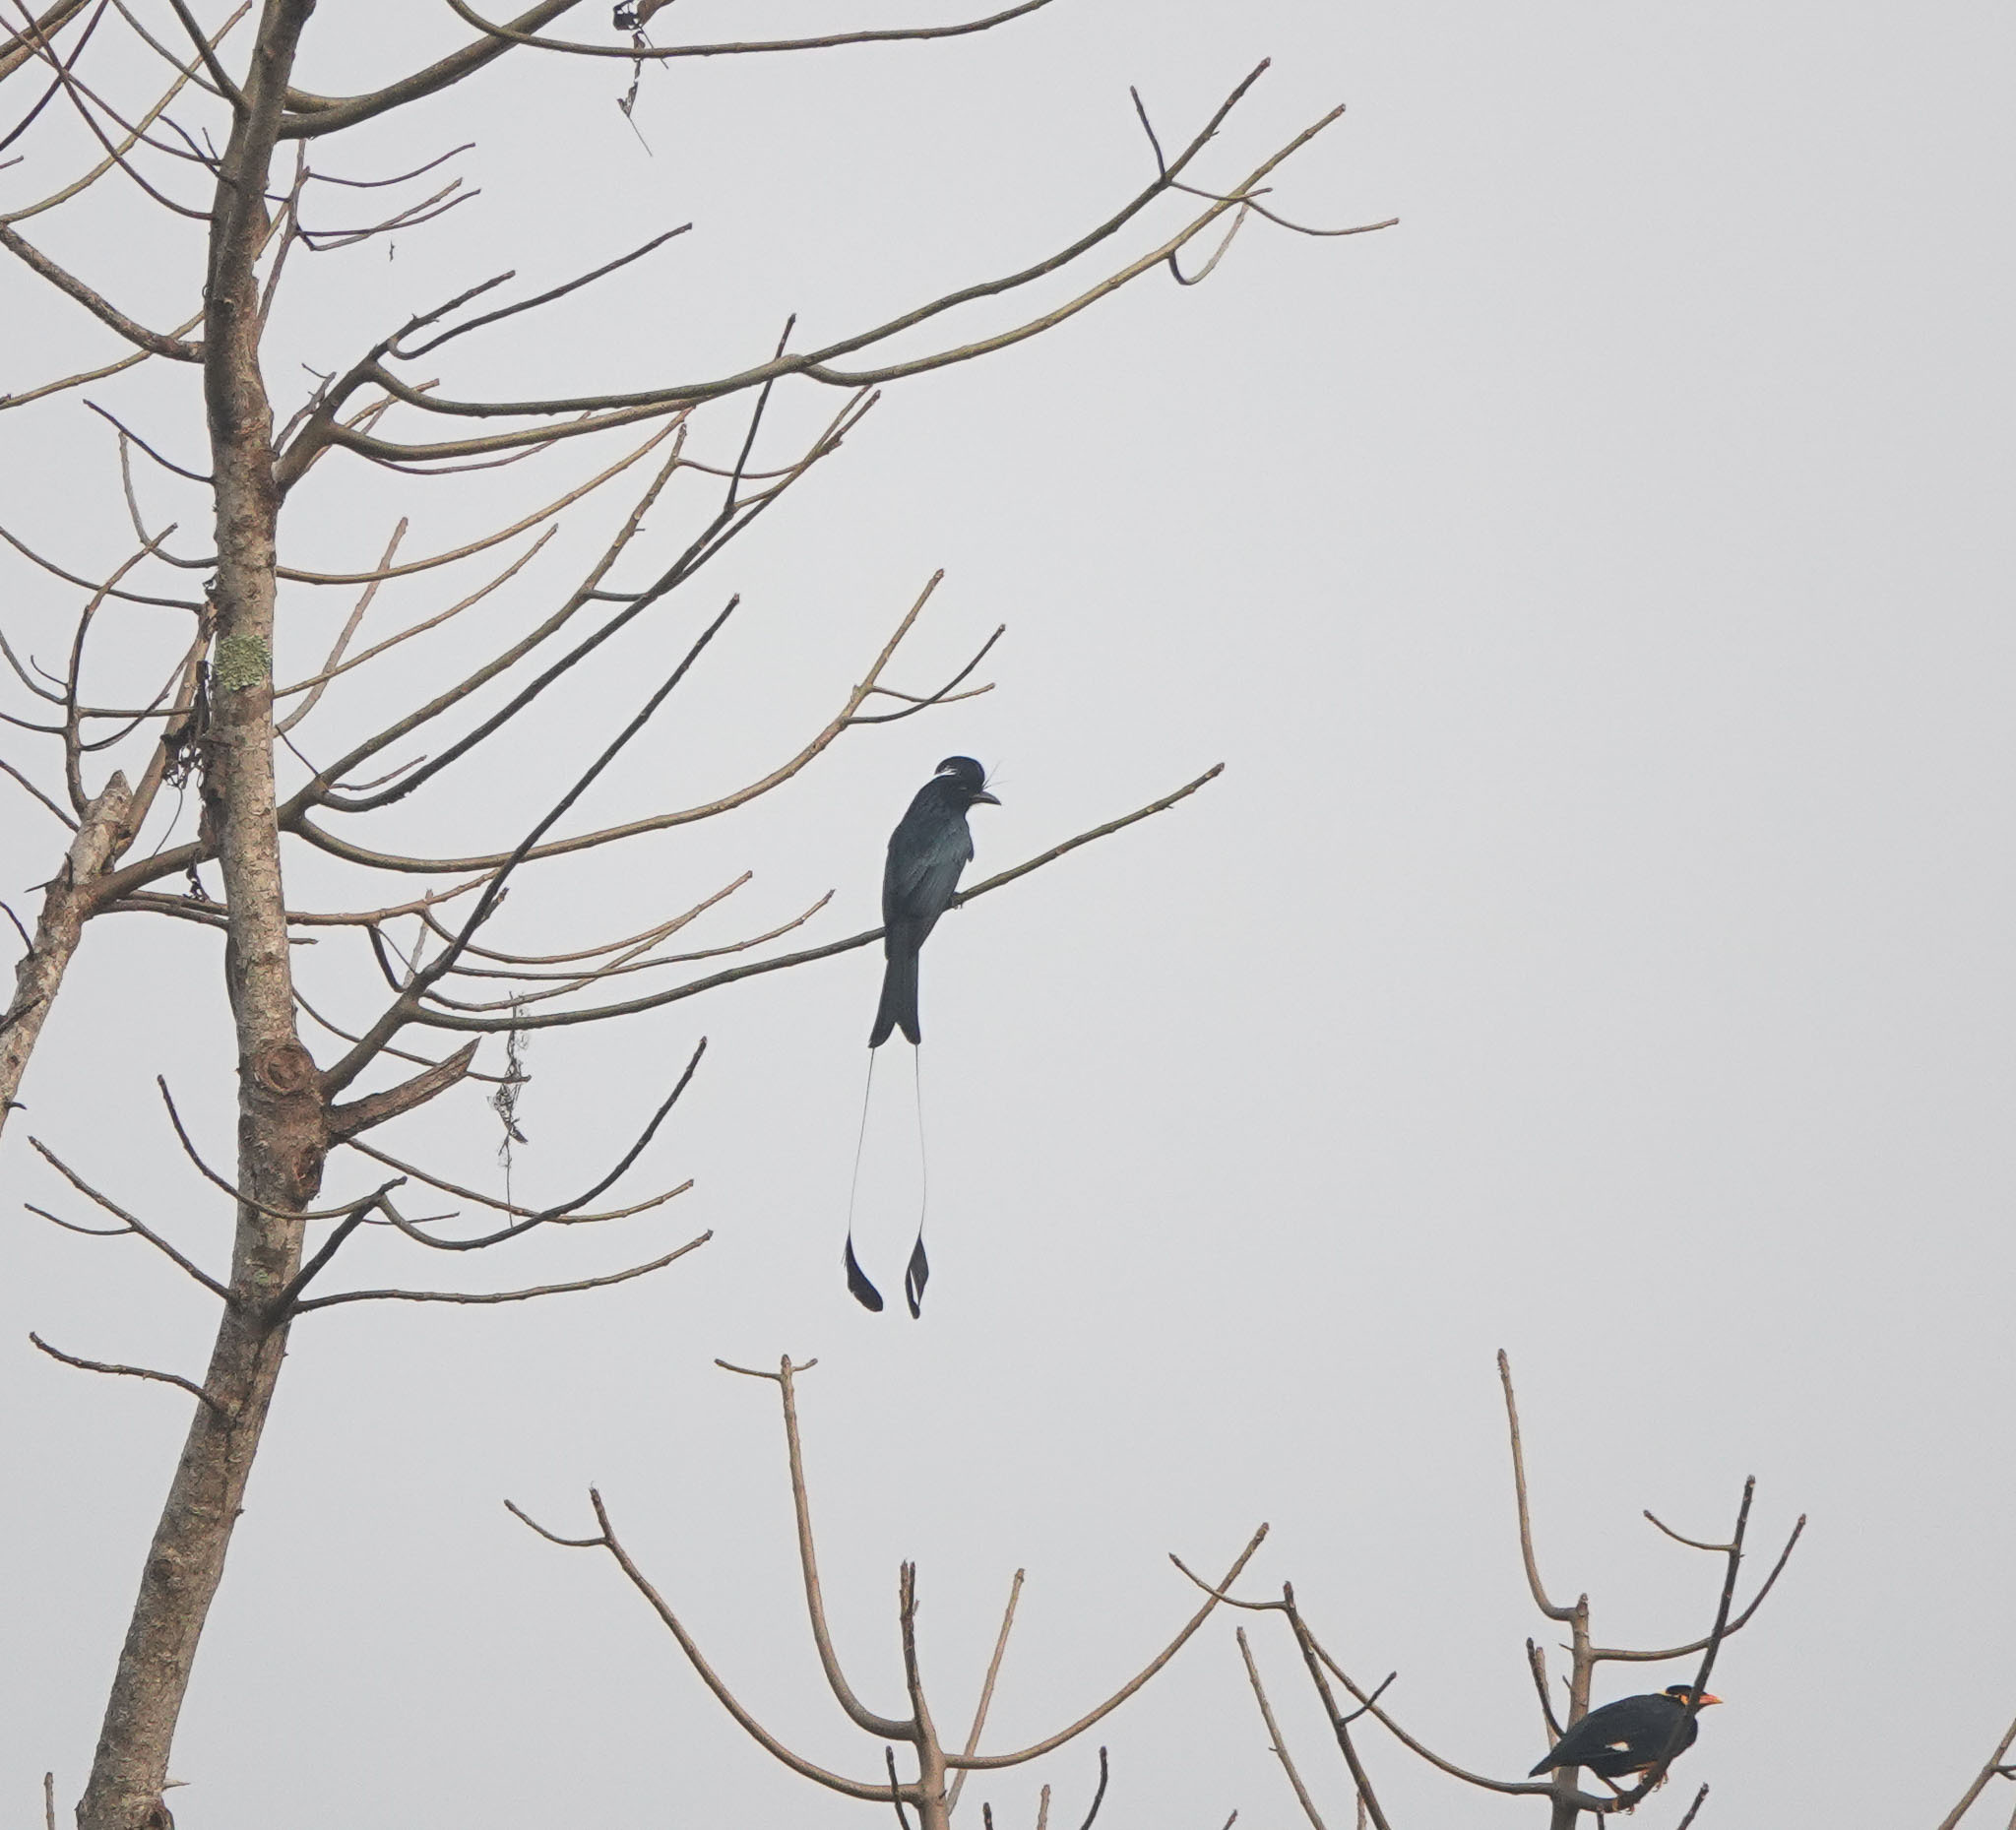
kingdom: Animalia
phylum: Chordata
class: Aves
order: Passeriformes
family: Dicruridae
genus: Dicrurus
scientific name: Dicrurus paradiseus
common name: Greater racket-tailed drongo
